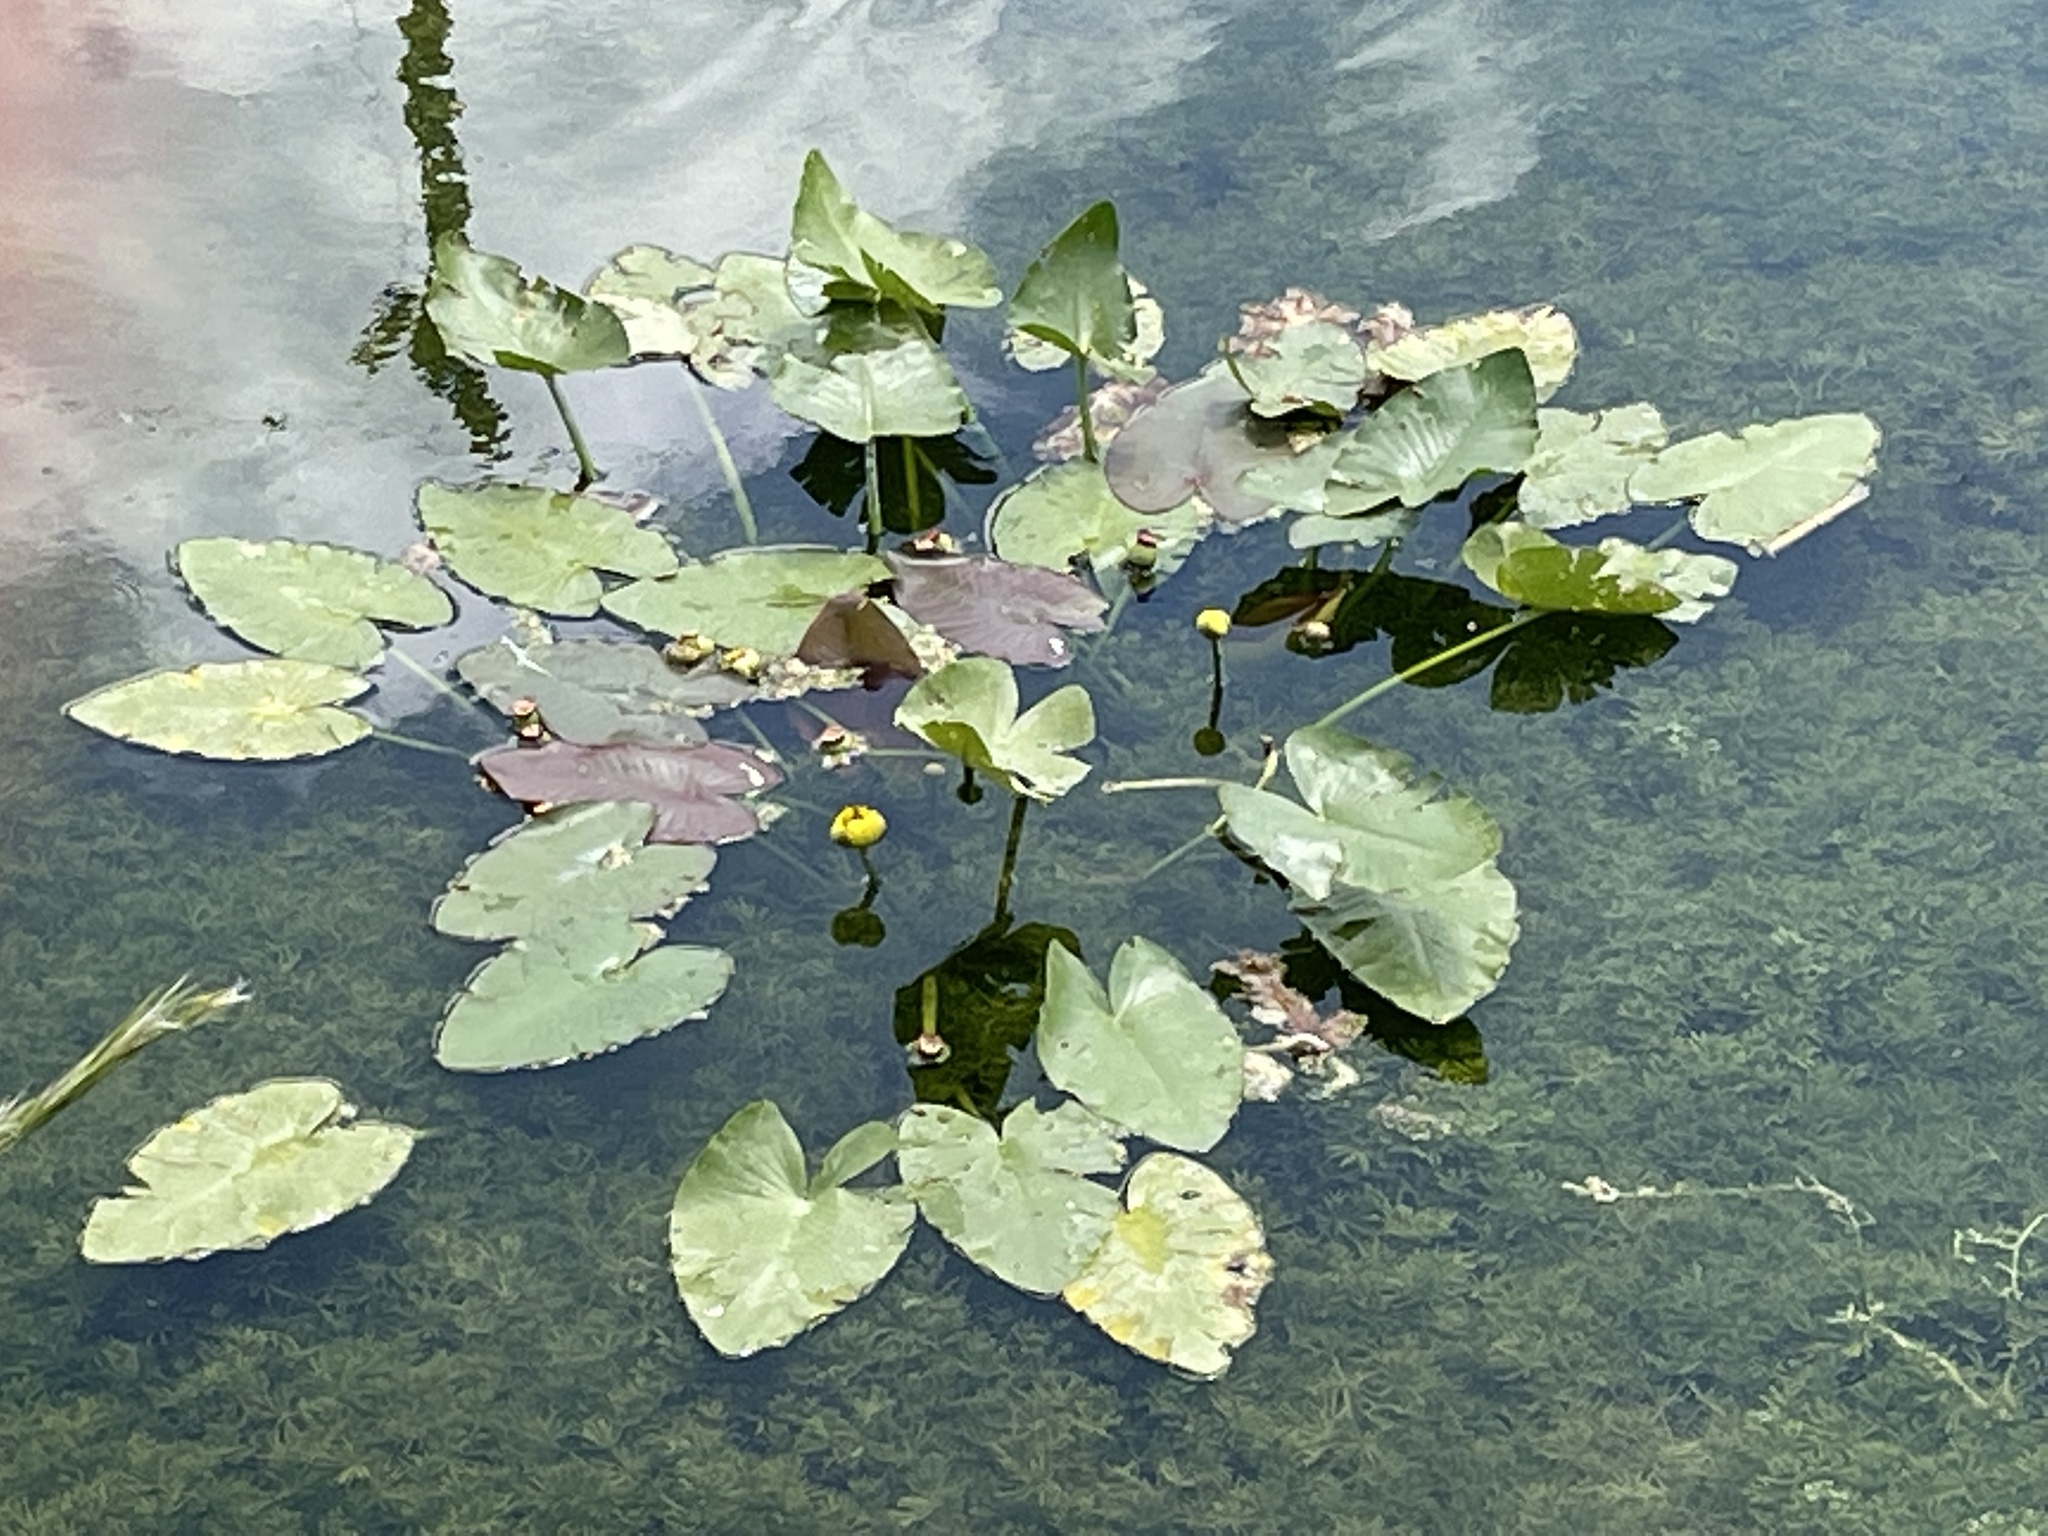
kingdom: Plantae
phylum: Tracheophyta
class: Magnoliopsida
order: Nymphaeales
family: Nymphaeaceae
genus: Nuphar
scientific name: Nuphar advena
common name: Spatter-dock
